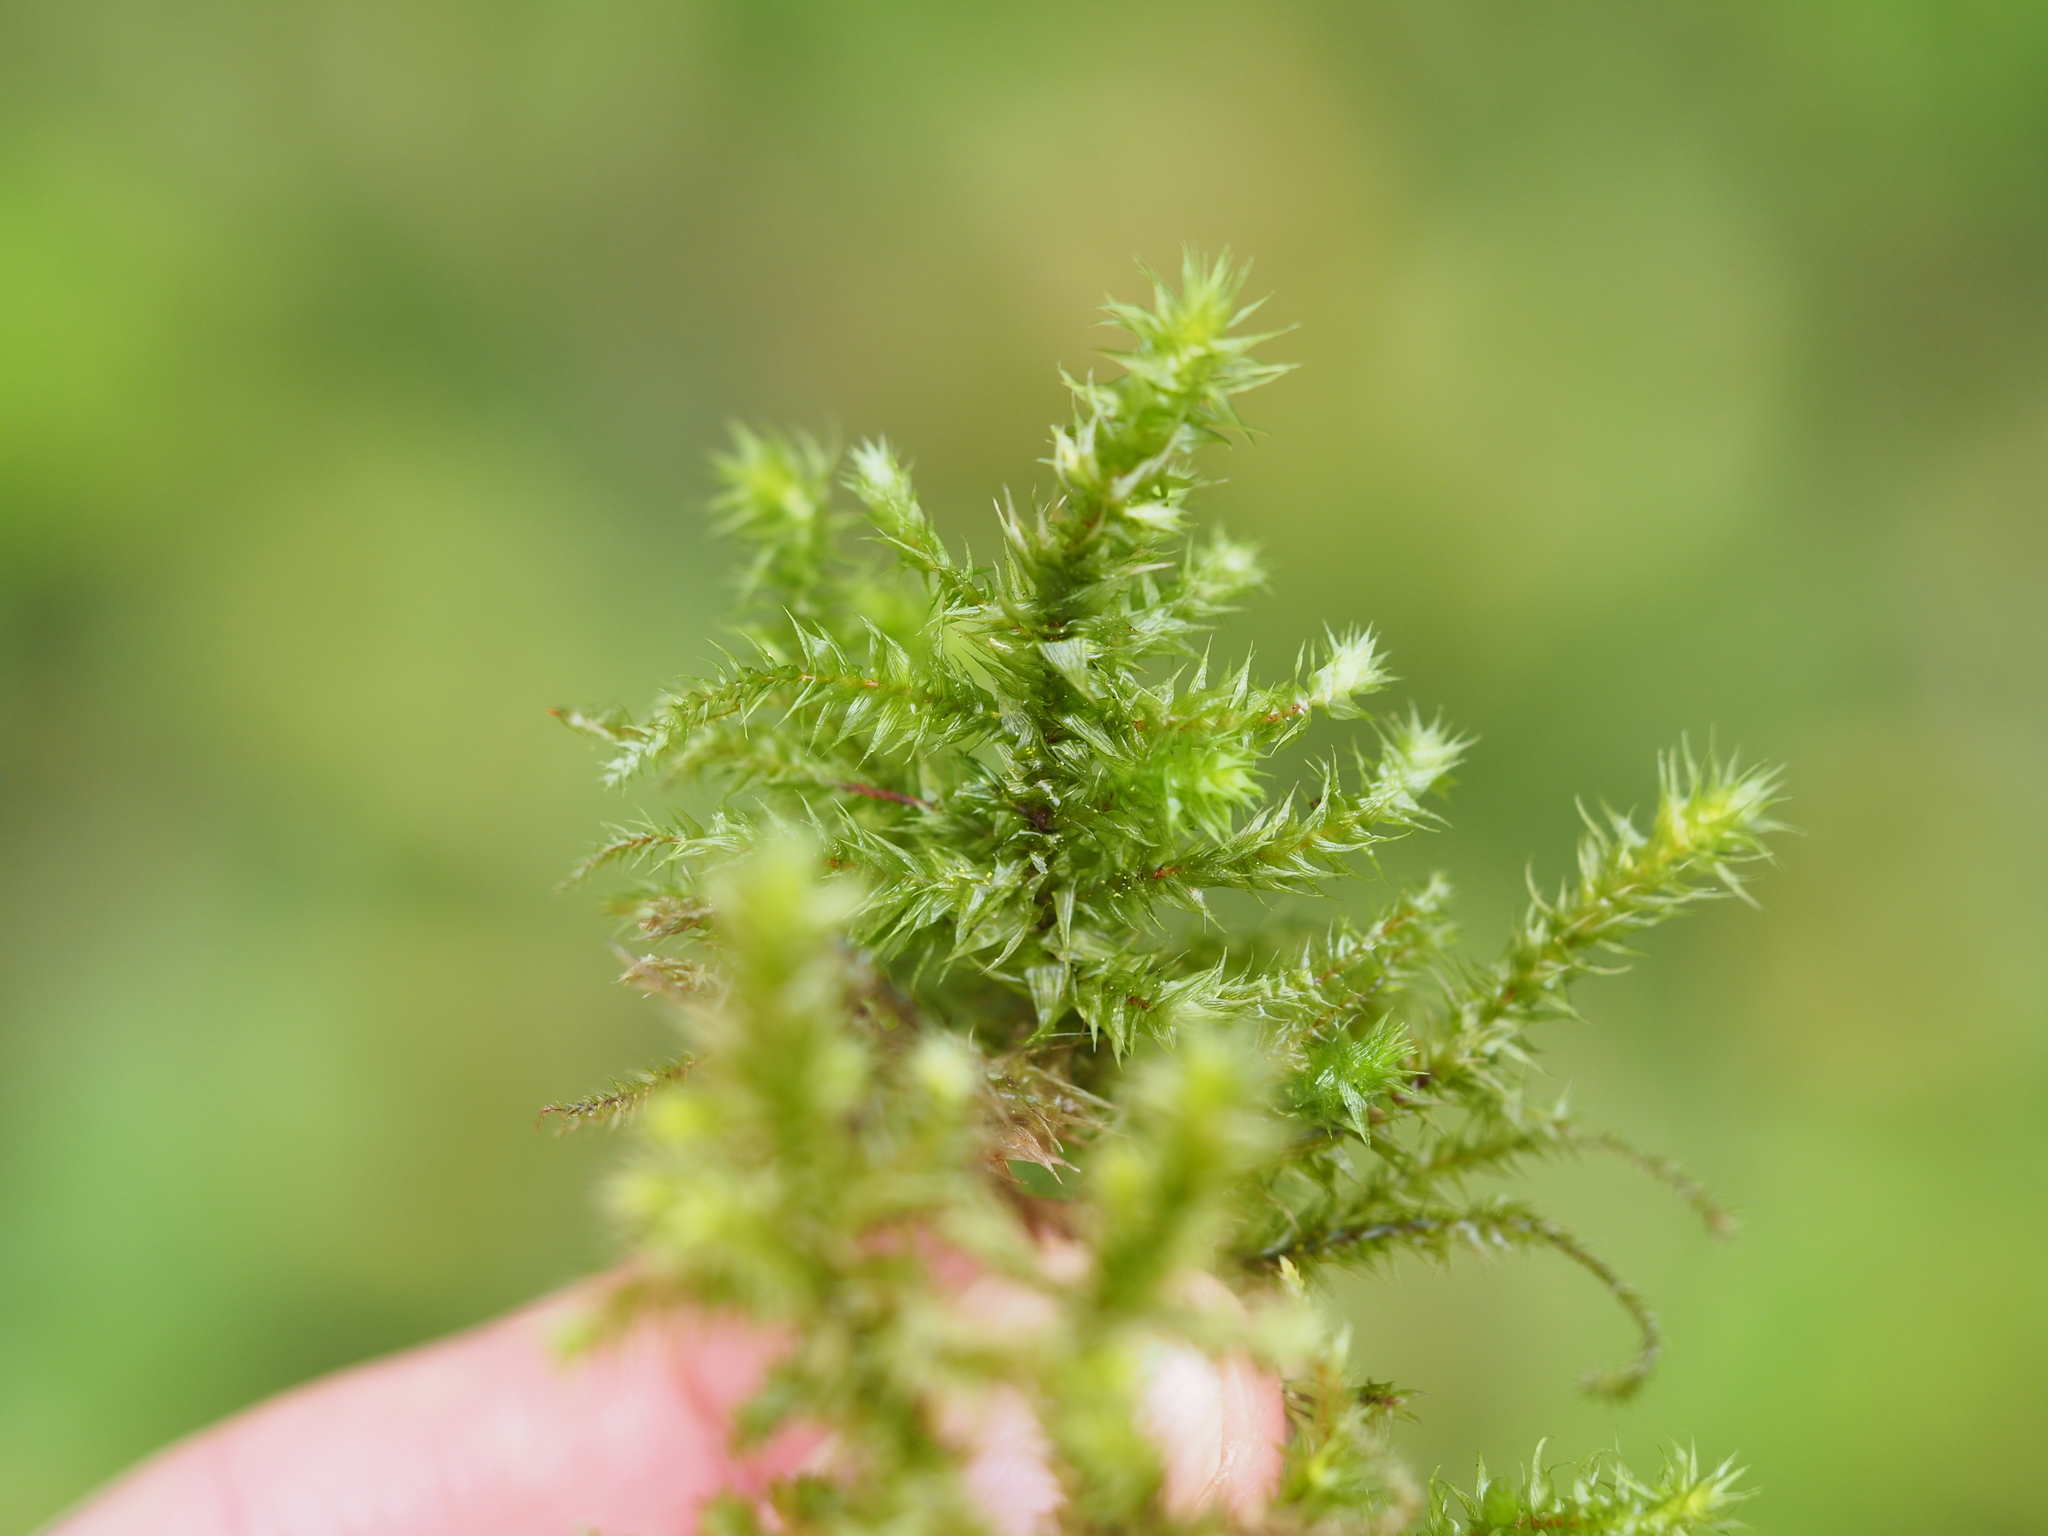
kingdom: Plantae
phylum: Bryophyta
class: Bryopsida
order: Hypnales
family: Hylocomiaceae
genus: Hylocomiadelphus
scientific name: Hylocomiadelphus triquetrus
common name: Rough goose neck moss
